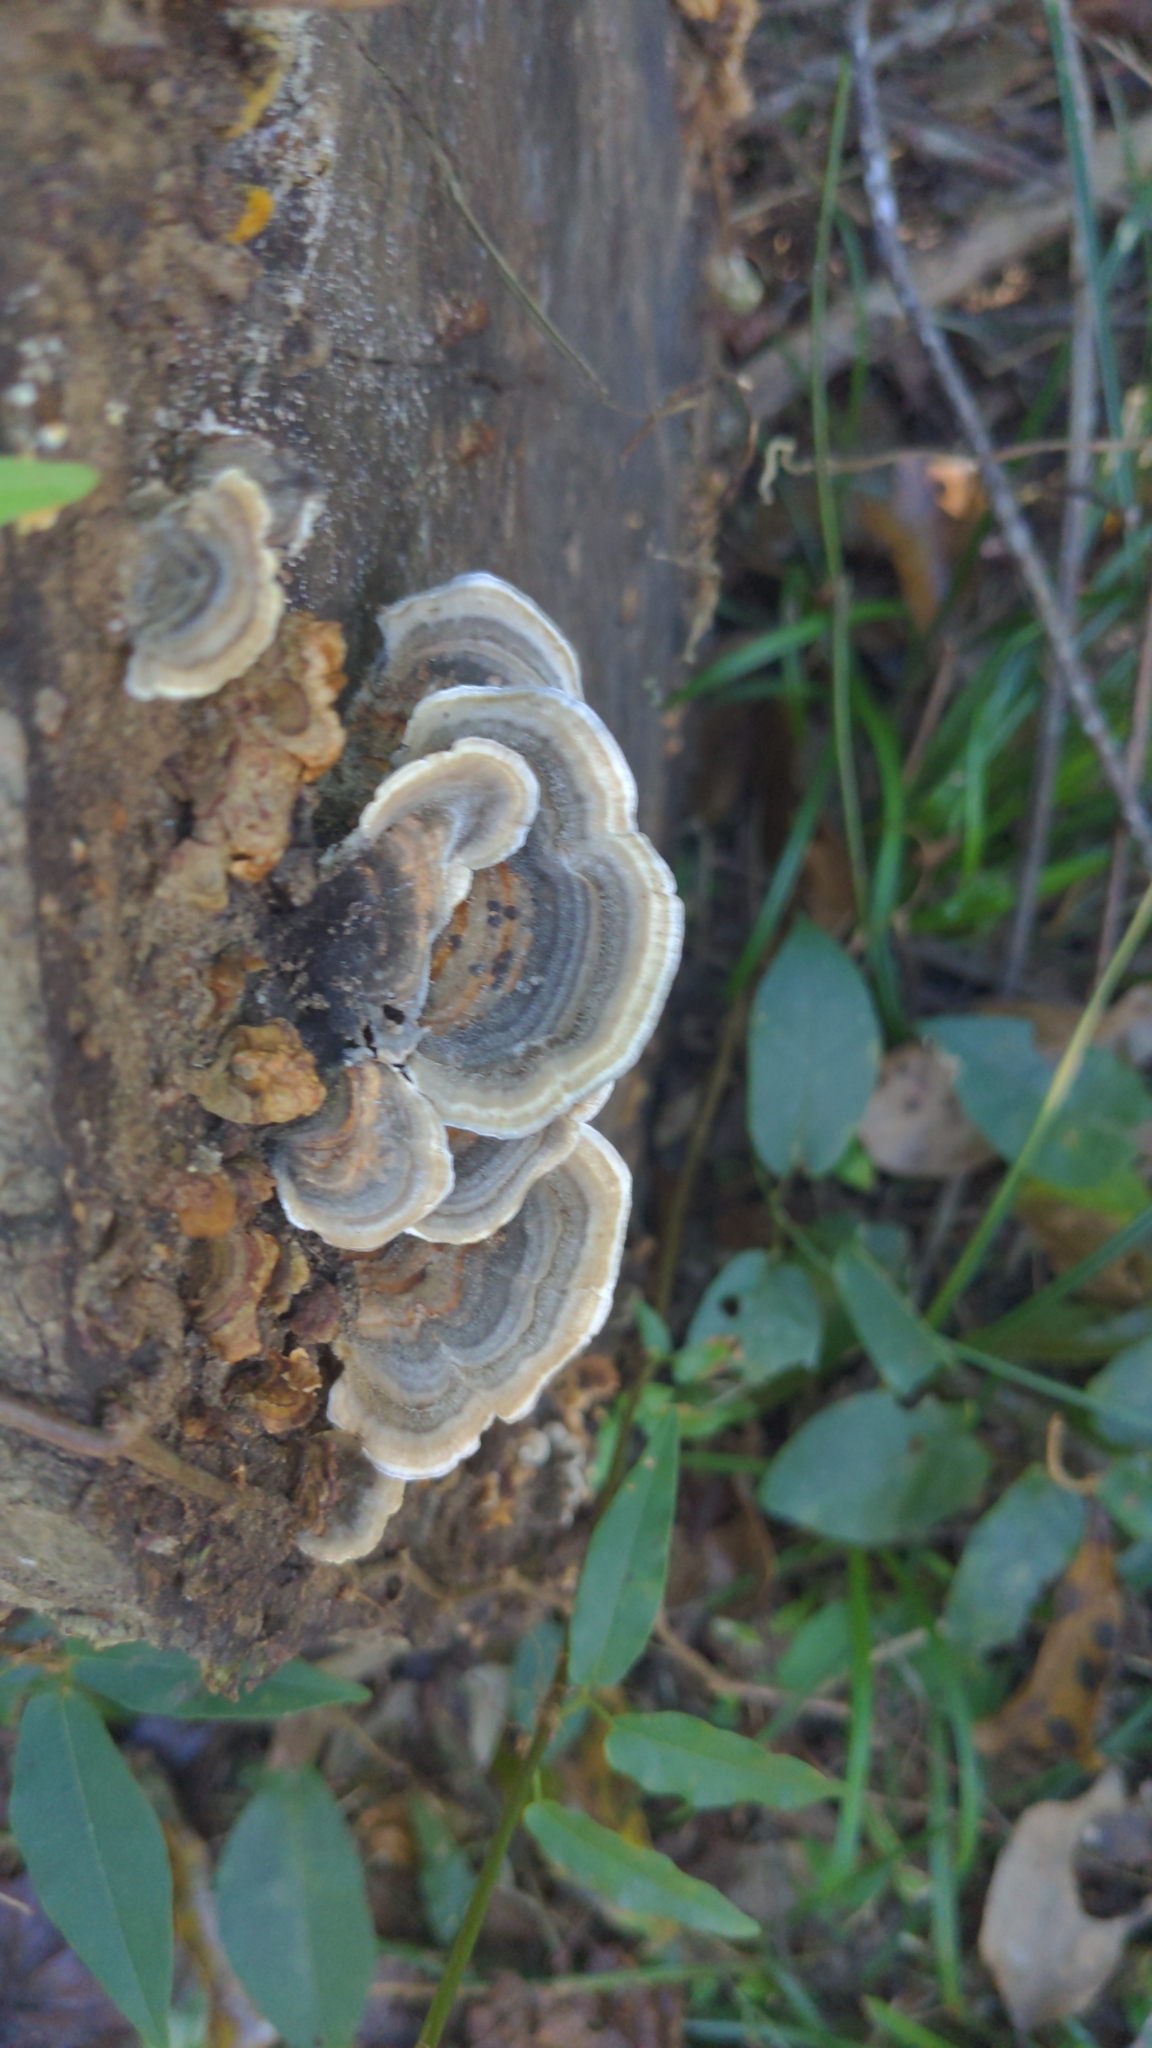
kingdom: Fungi
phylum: Basidiomycota
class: Agaricomycetes
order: Polyporales
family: Polyporaceae
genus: Trametes
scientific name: Trametes versicolor
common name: Turkeytail
